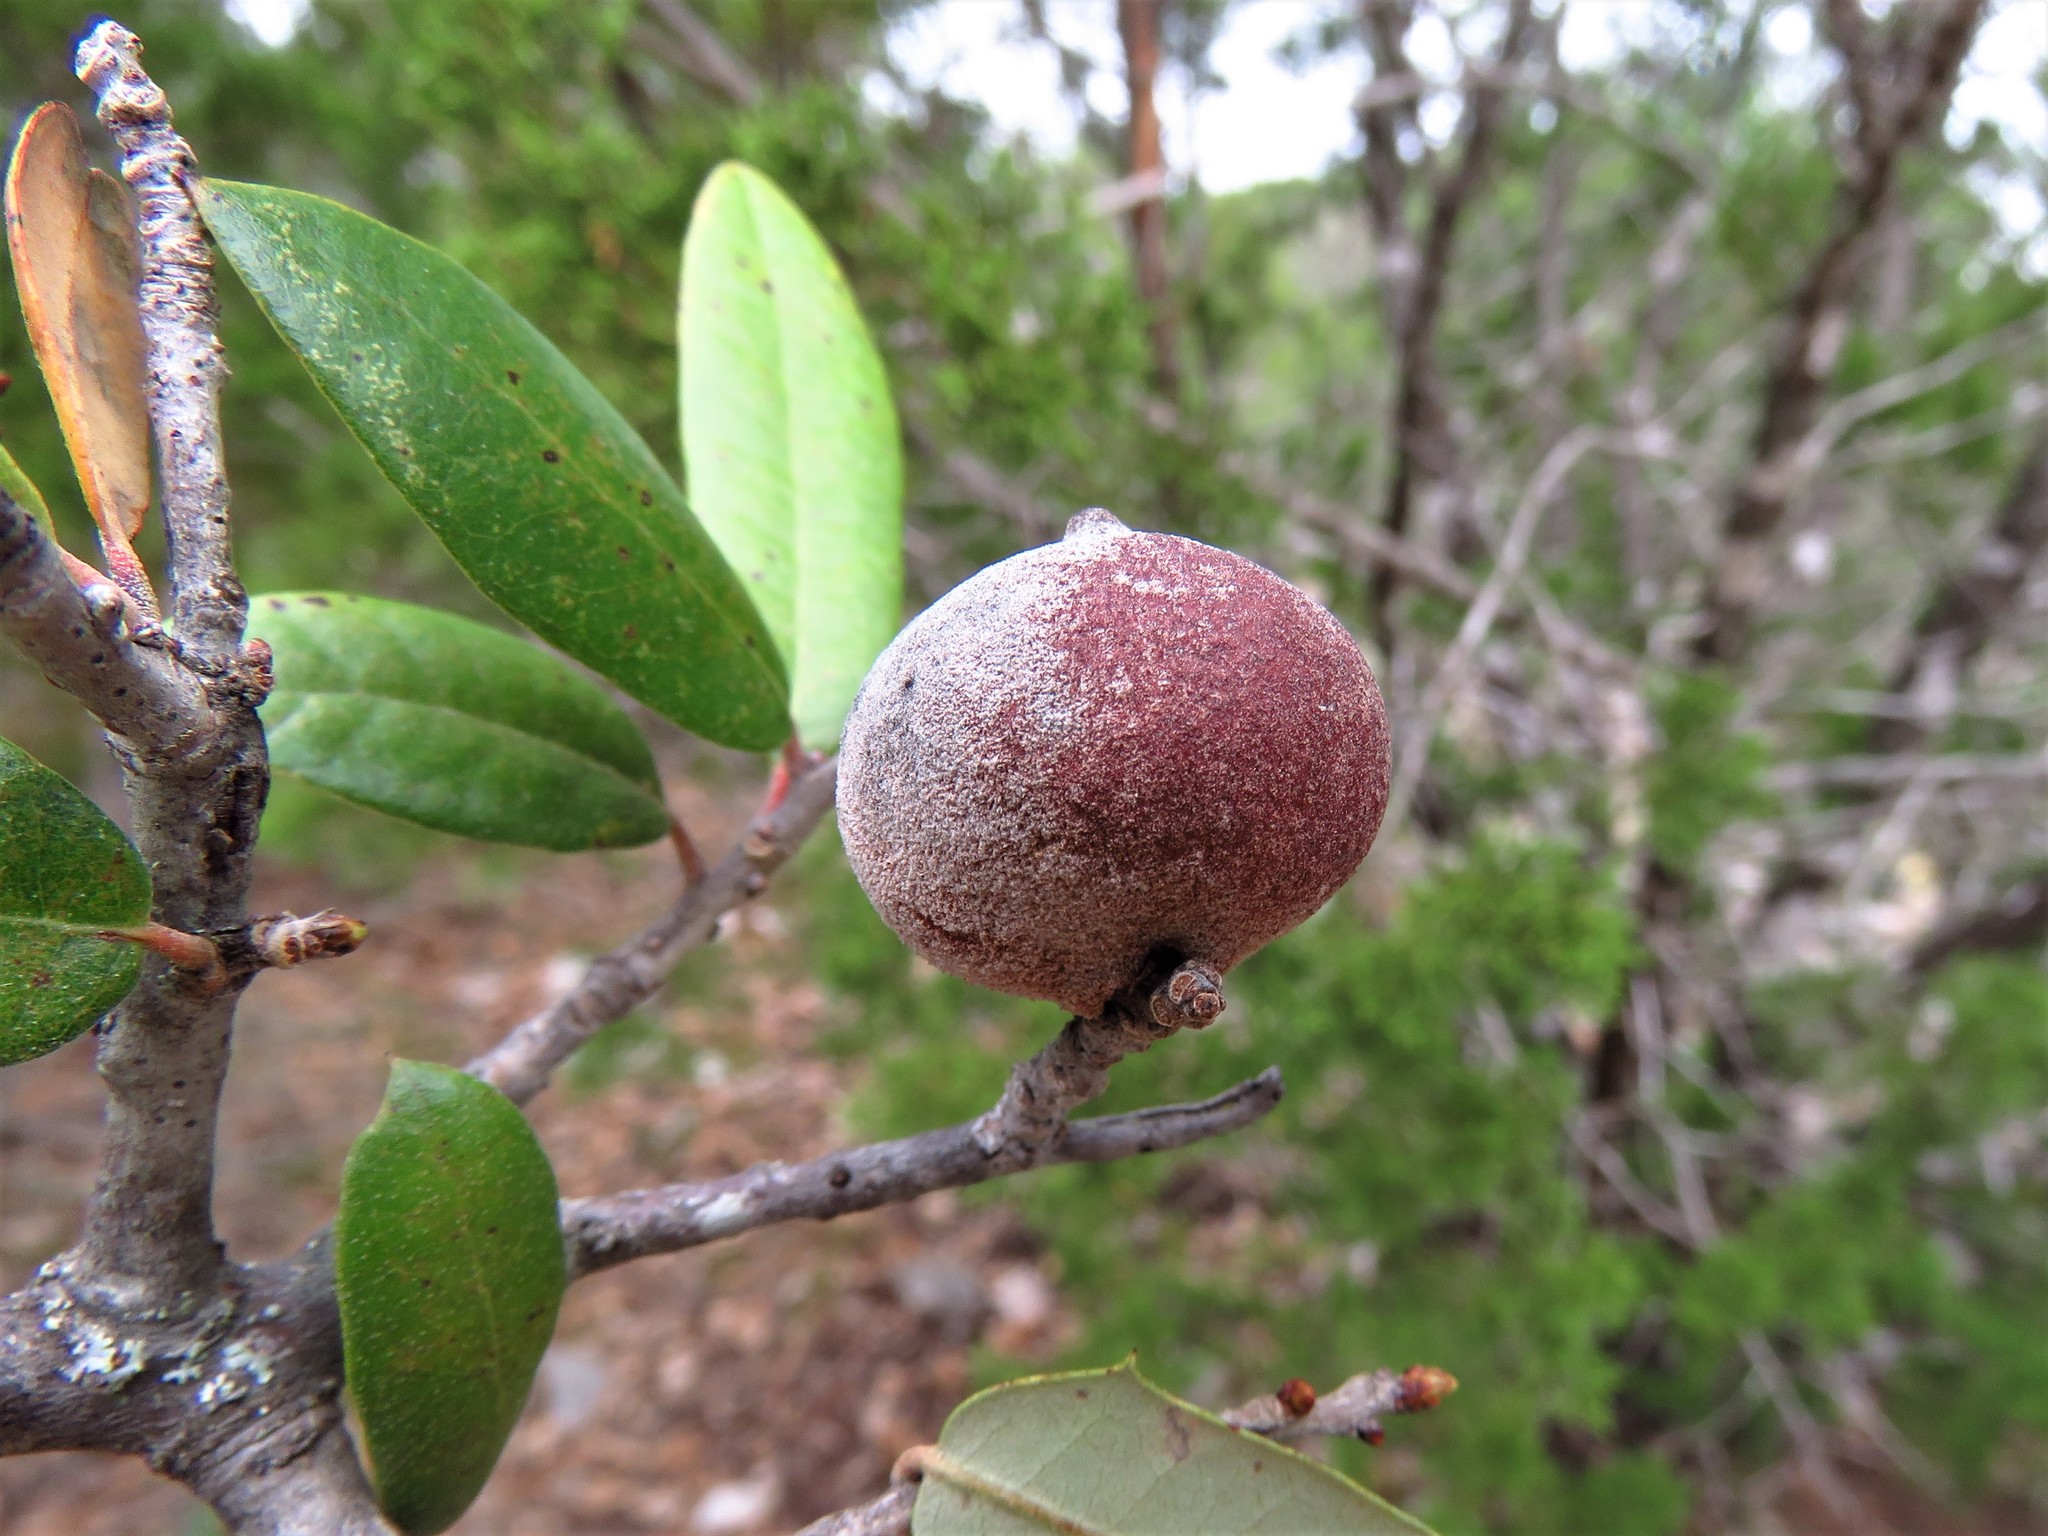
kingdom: Animalia
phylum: Arthropoda
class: Insecta
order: Hymenoptera
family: Cynipidae
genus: Disholcaspis
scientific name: Disholcaspis
